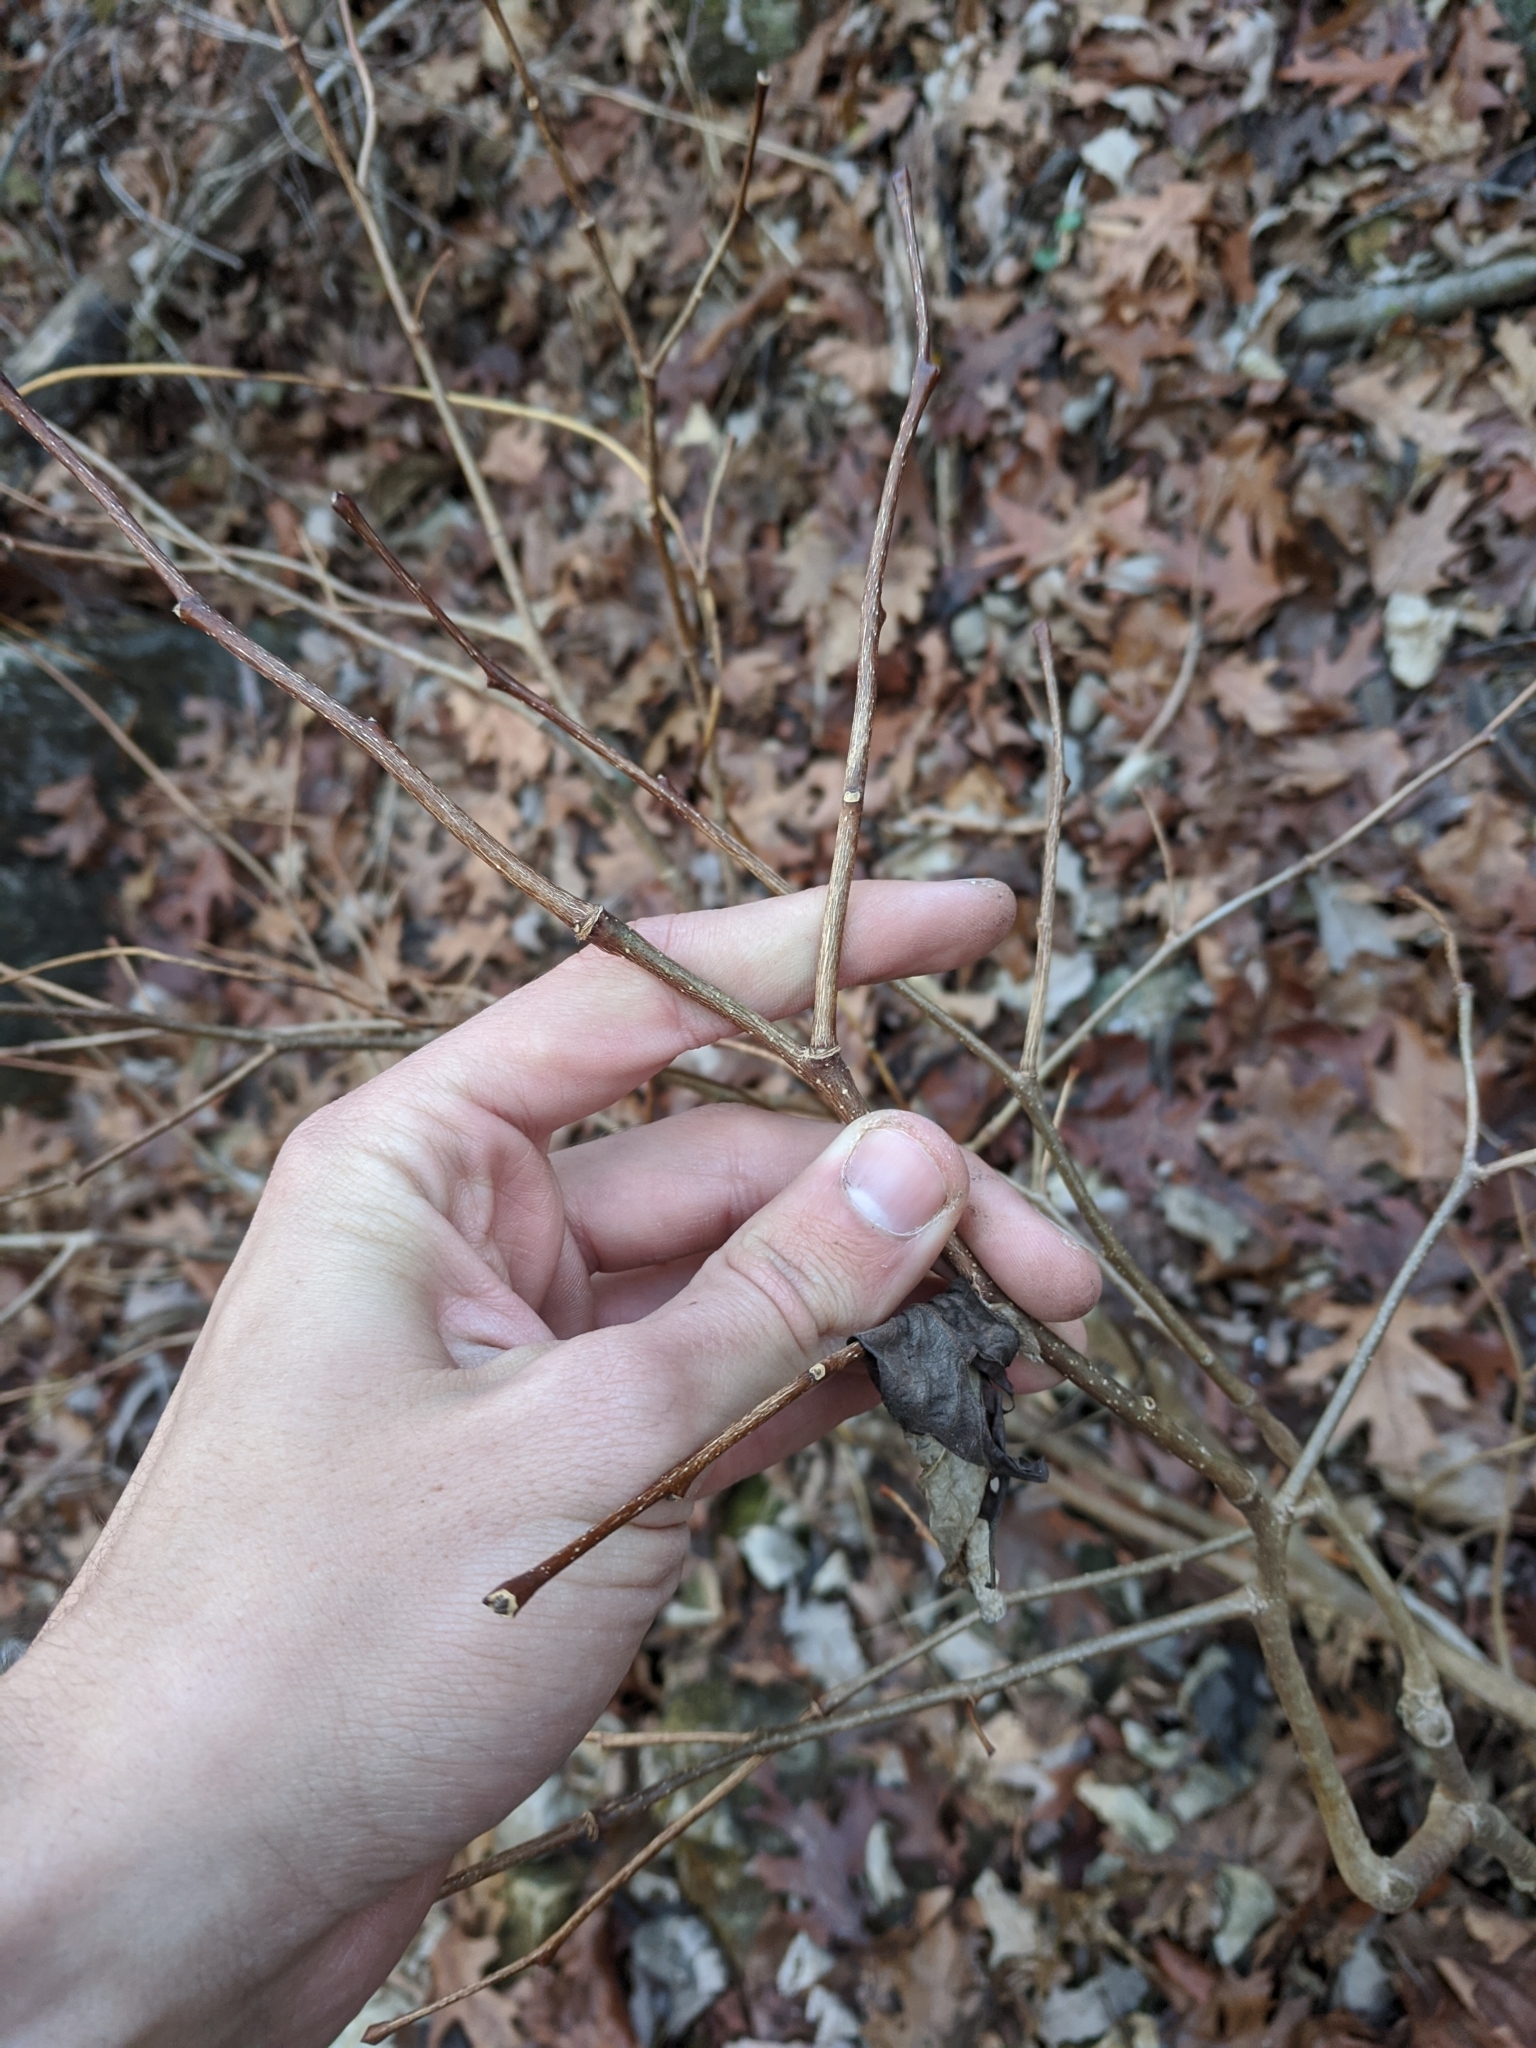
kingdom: Plantae
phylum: Tracheophyta
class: Magnoliopsida
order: Malvales
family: Thymelaeaceae
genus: Dirca
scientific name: Dirca palustris
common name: Leatherwood
